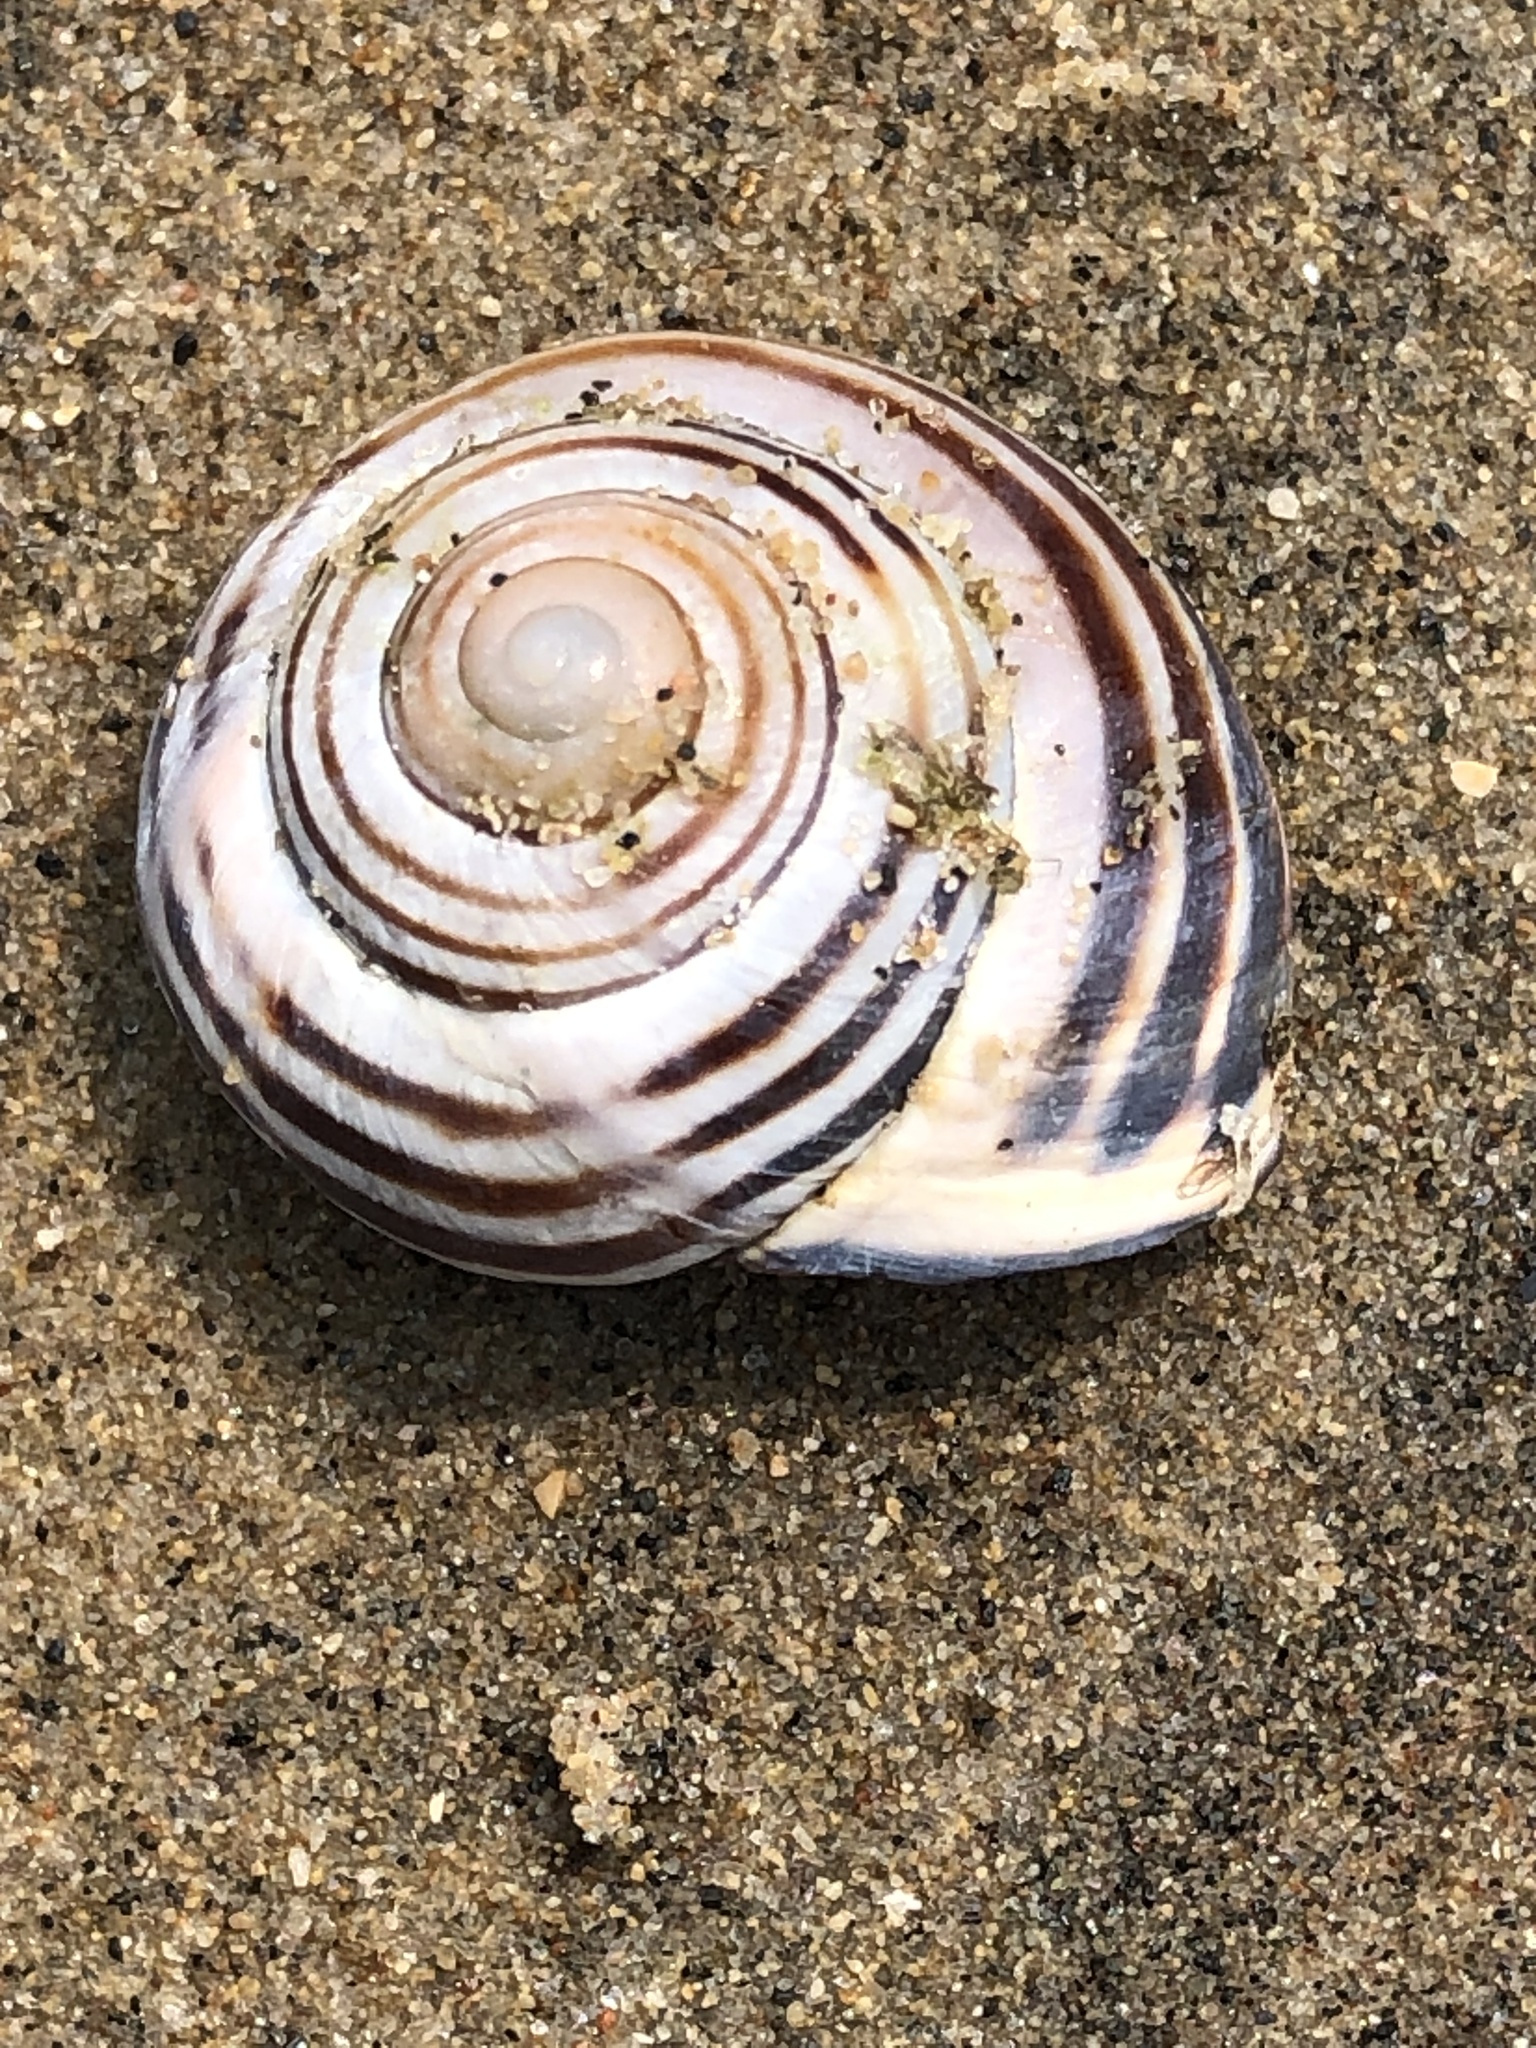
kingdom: Animalia
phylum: Mollusca
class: Gastropoda
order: Stylommatophora
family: Helicidae
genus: Cepaea
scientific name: Cepaea nemoralis
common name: Grovesnail
